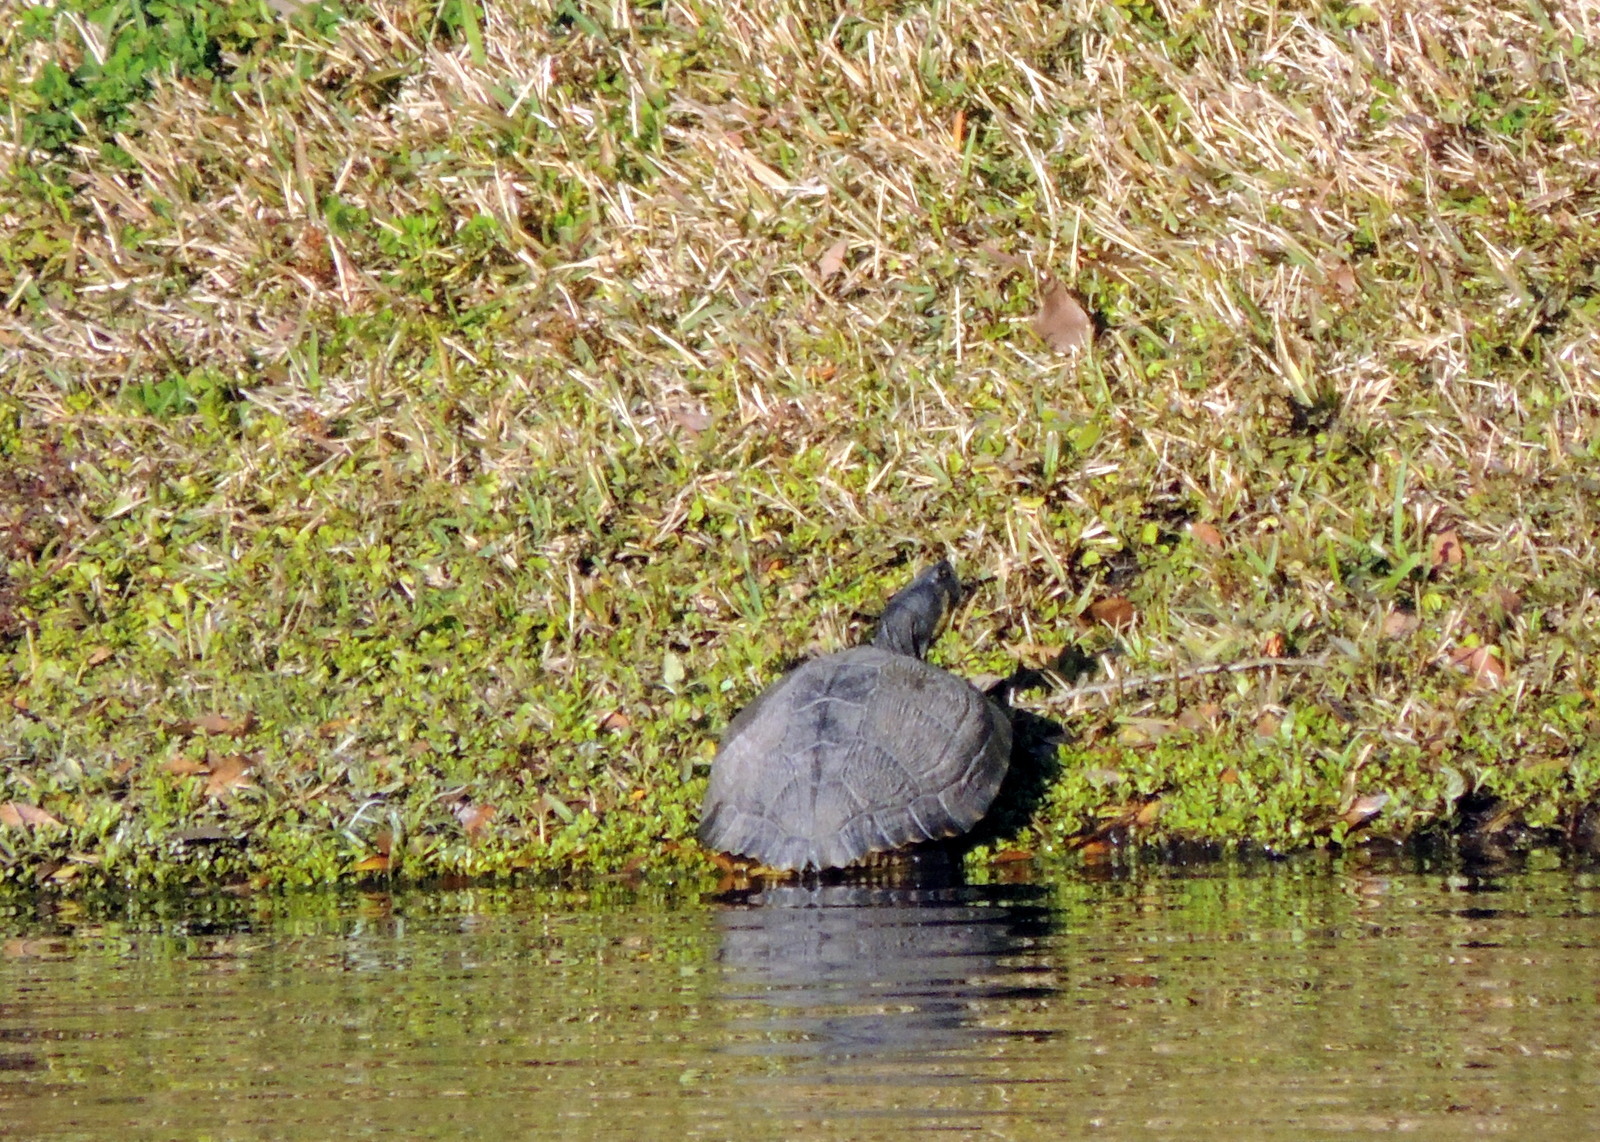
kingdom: Animalia
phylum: Chordata
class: Testudines
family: Emydidae
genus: Trachemys
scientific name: Trachemys scripta
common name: Slider
